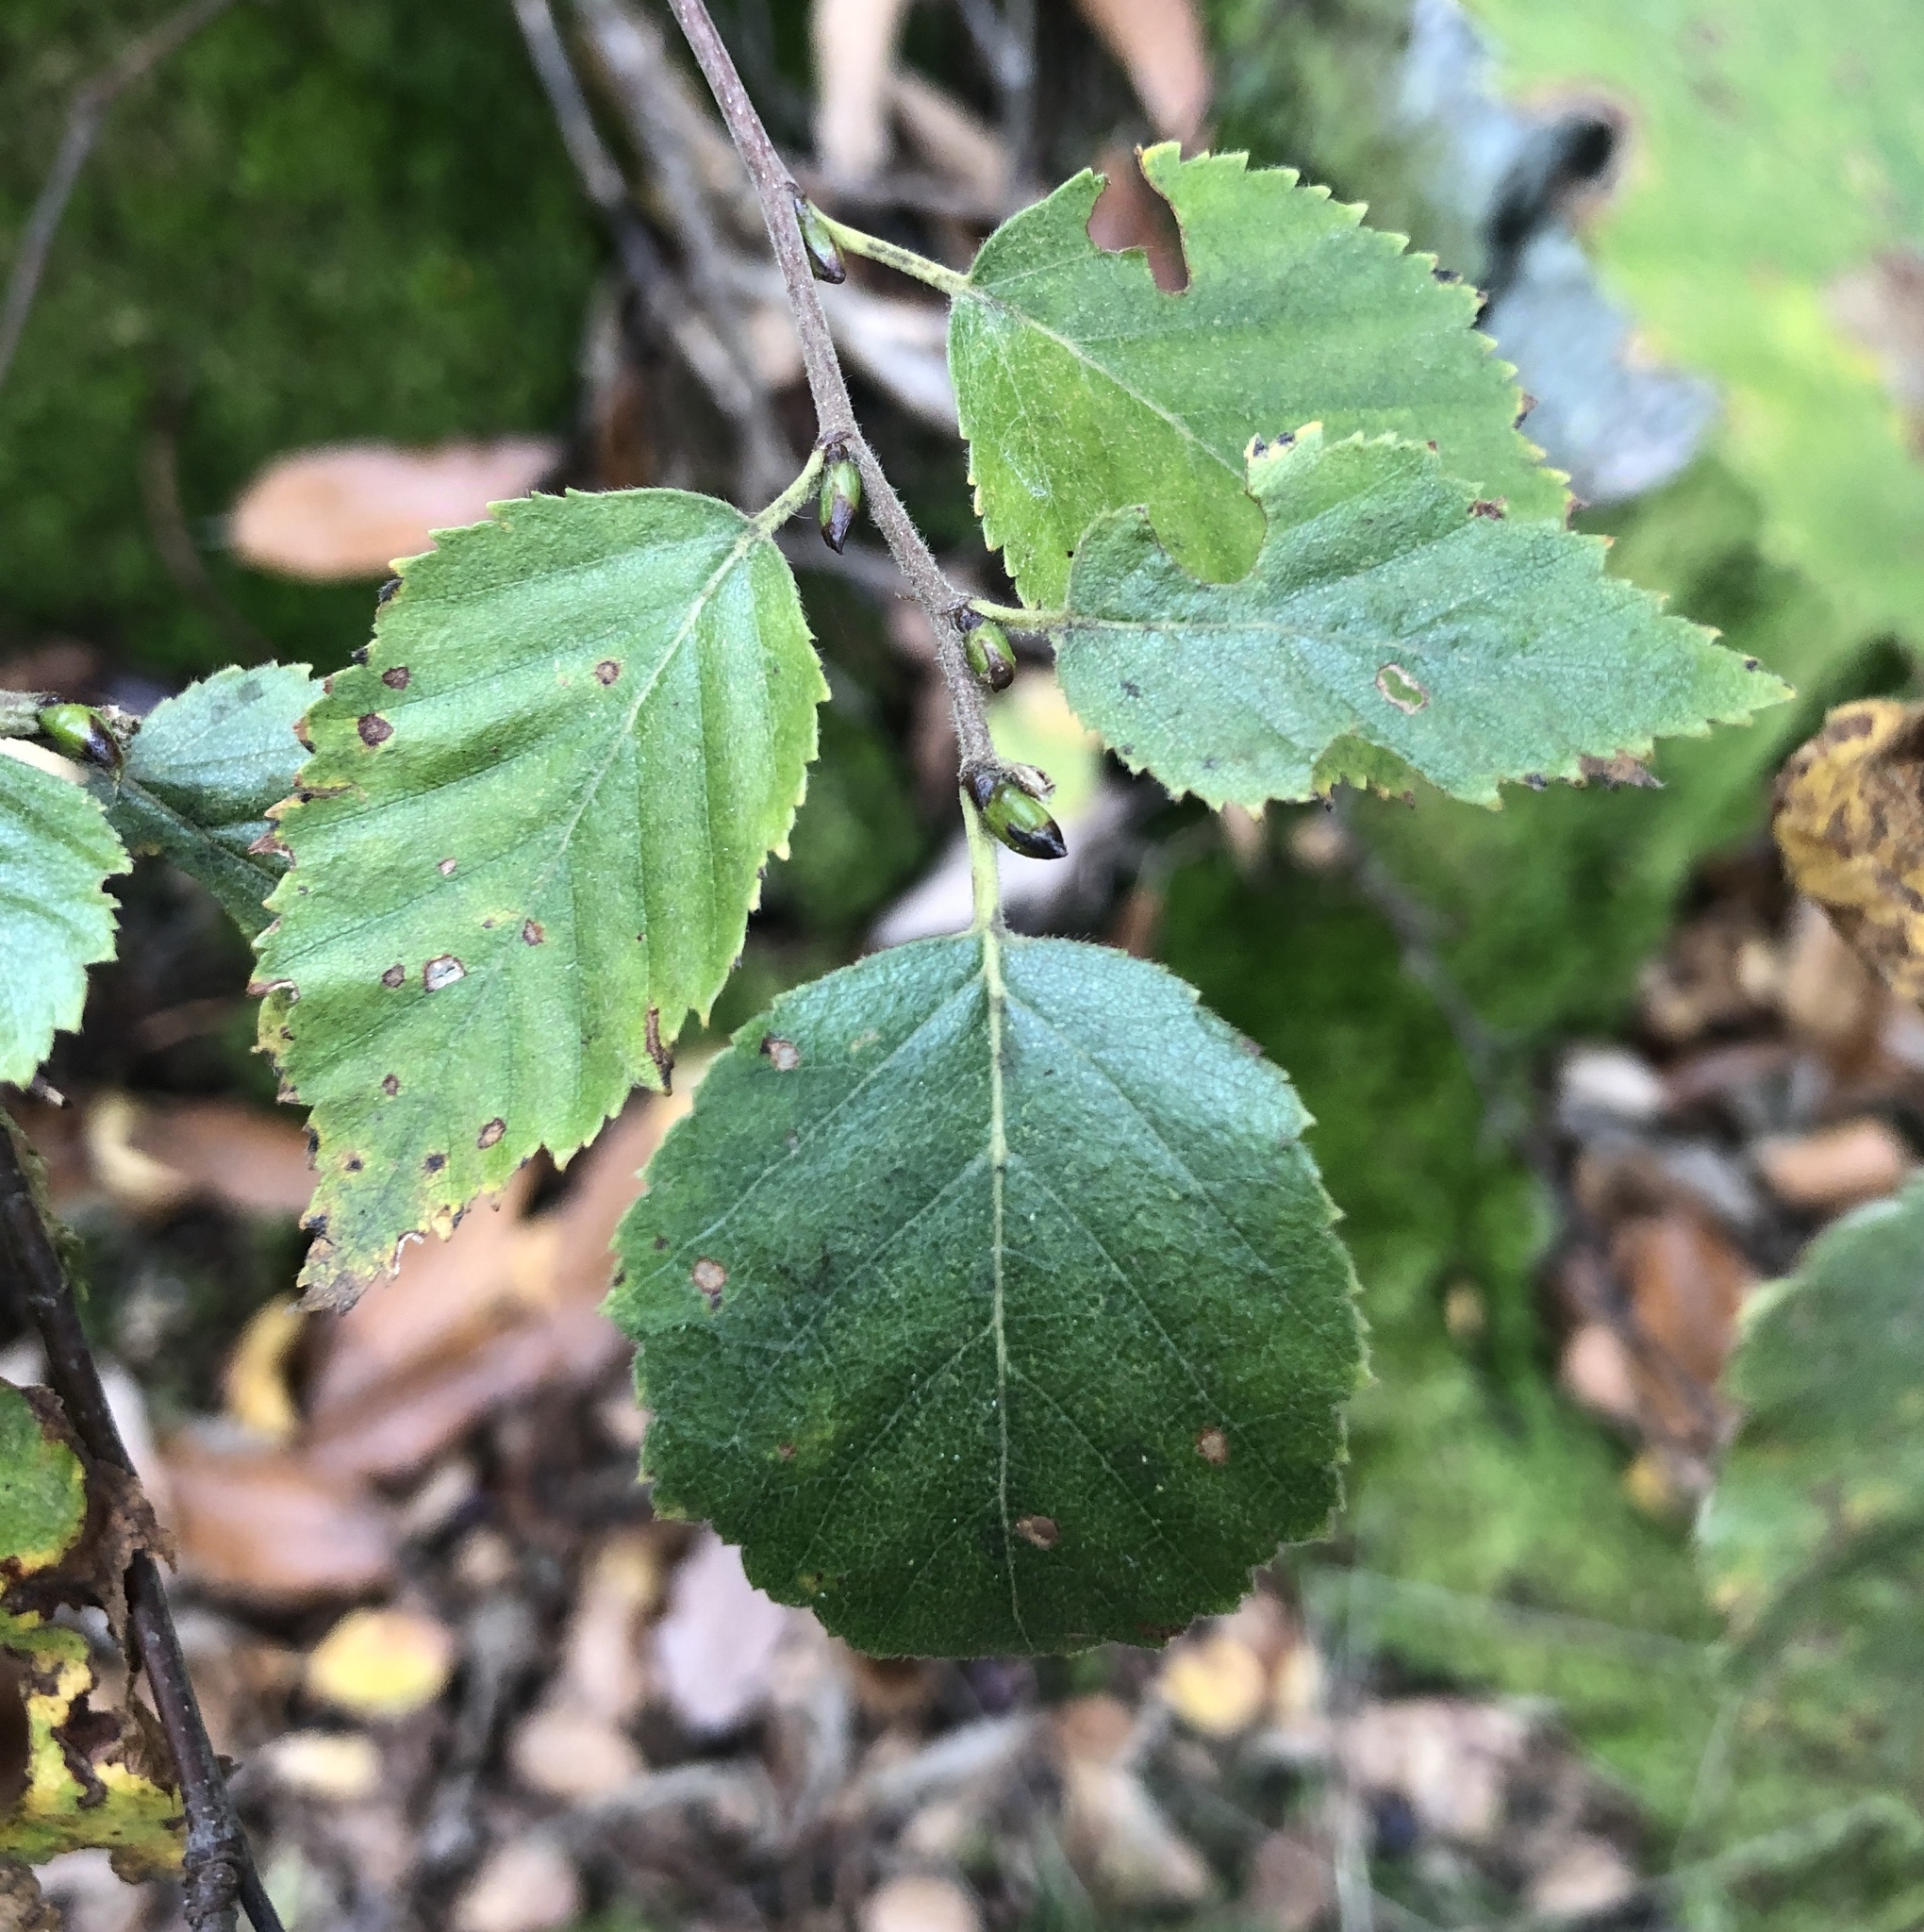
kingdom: Plantae
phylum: Tracheophyta
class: Magnoliopsida
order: Fagales
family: Betulaceae
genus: Betula
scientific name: Betula pubescens
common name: Downy birch
